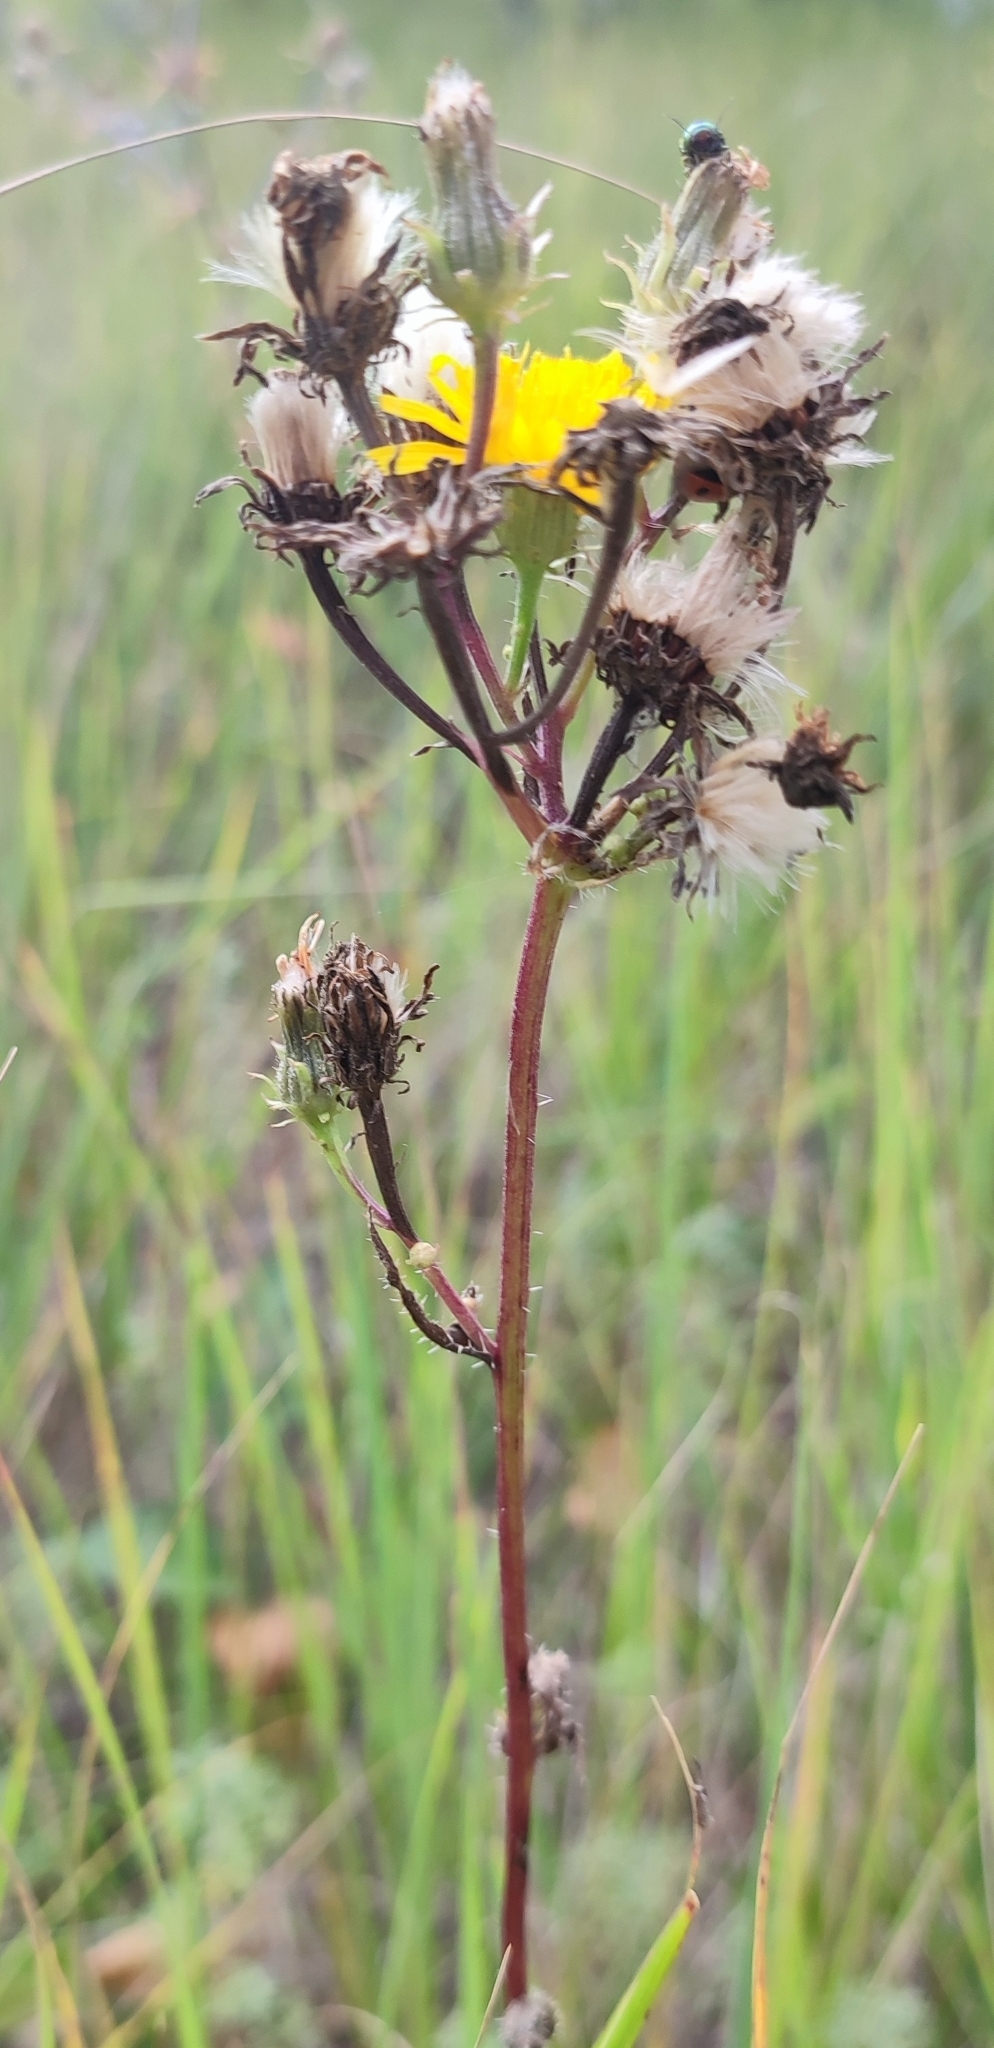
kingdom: Plantae
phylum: Tracheophyta
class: Magnoliopsida
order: Asterales
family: Asteraceae
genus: Picris
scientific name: Picris hieracioides
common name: Hawkweed oxtongue
